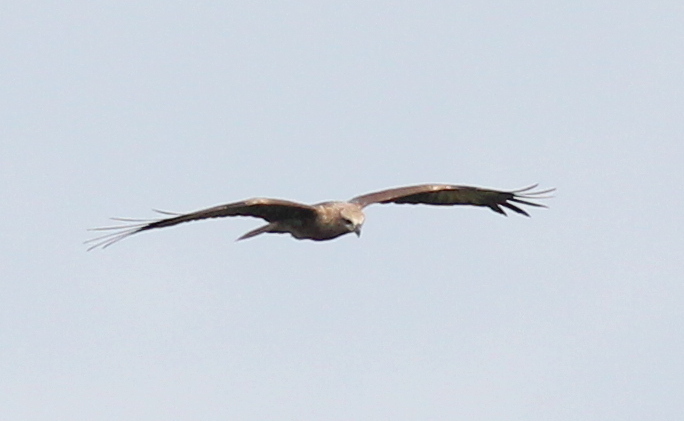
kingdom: Animalia
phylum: Chordata
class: Aves
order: Accipitriformes
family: Accipitridae
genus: Haliastur
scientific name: Haliastur indus
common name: Brahminy kite
